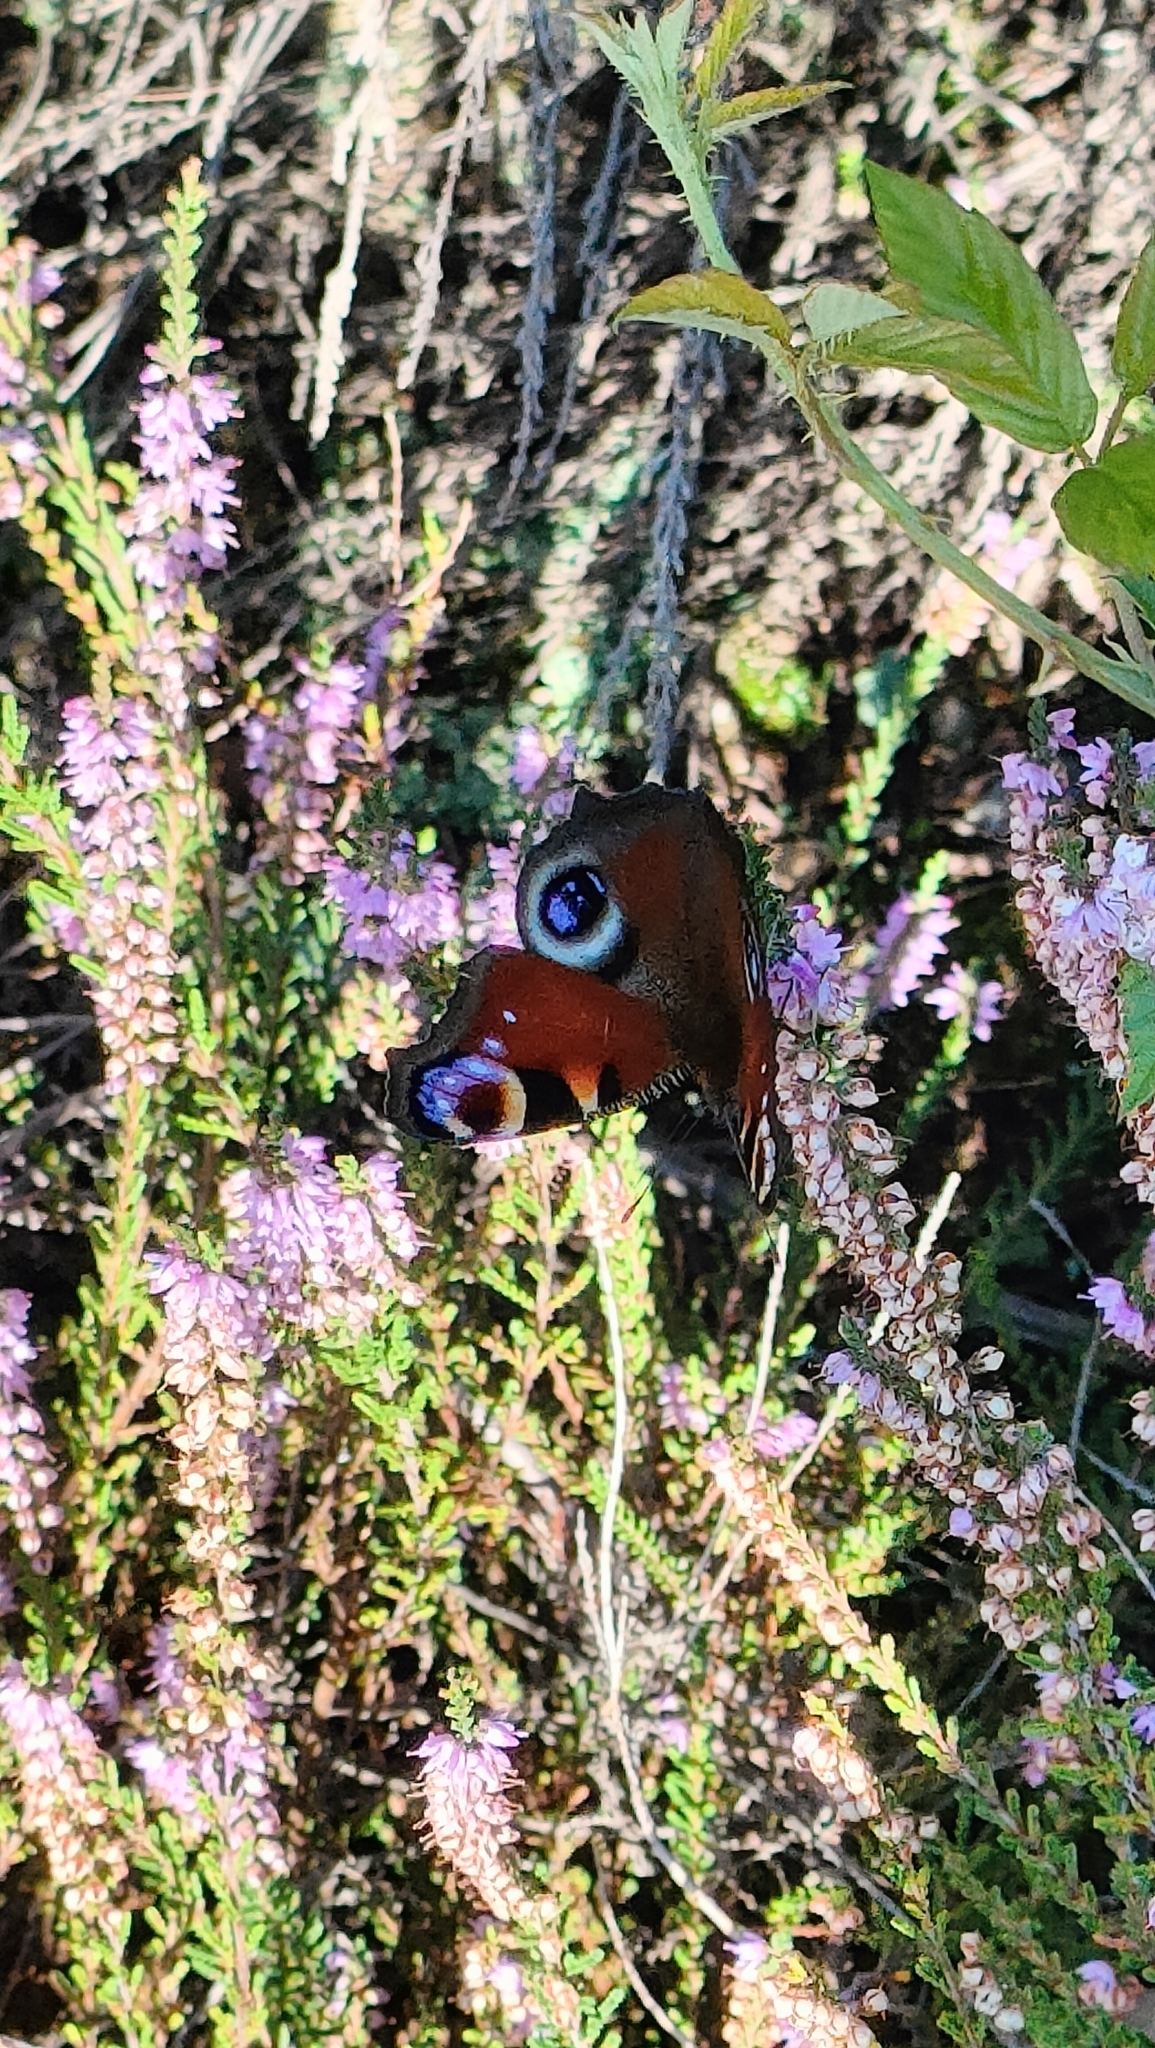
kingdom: Animalia
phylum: Arthropoda
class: Insecta
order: Lepidoptera
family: Nymphalidae
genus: Aglais
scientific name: Aglais io
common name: Peacock
